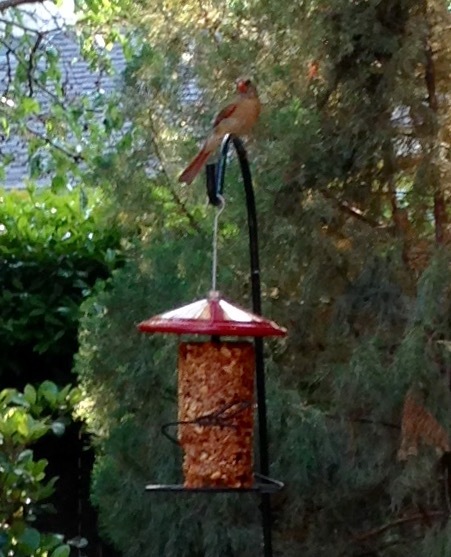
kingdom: Animalia
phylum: Chordata
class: Aves
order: Passeriformes
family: Cardinalidae
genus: Cardinalis
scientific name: Cardinalis cardinalis
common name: Northern cardinal
